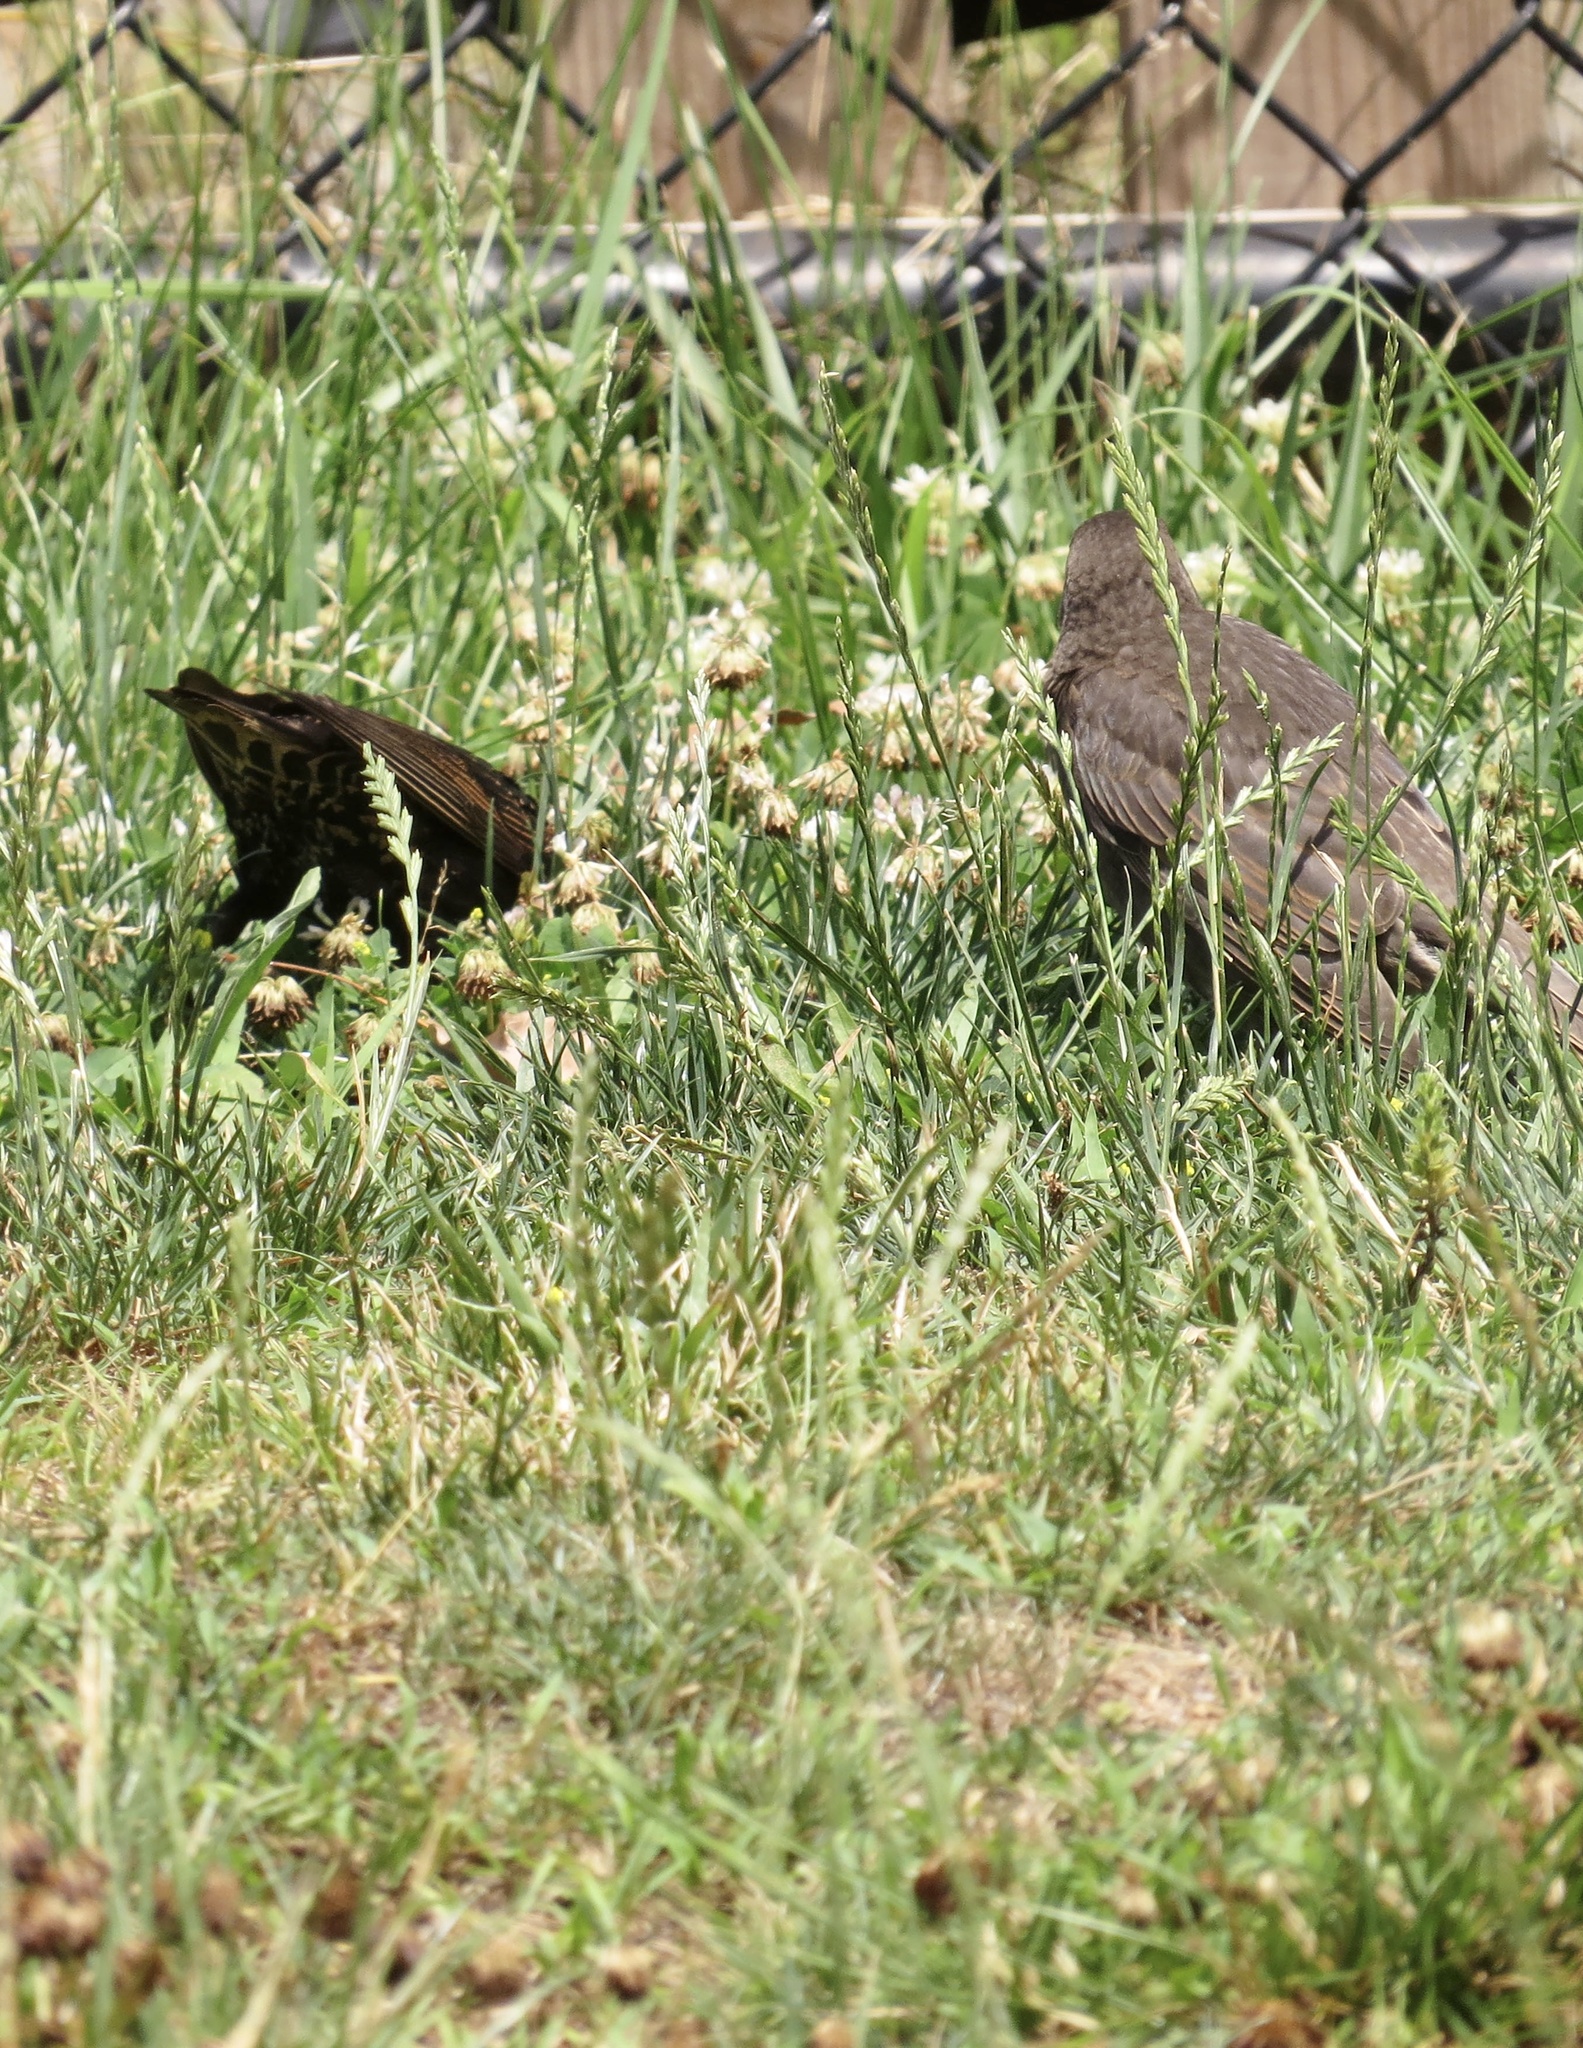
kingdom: Animalia
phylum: Chordata
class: Aves
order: Passeriformes
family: Sturnidae
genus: Sturnus
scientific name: Sturnus vulgaris
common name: Common starling
